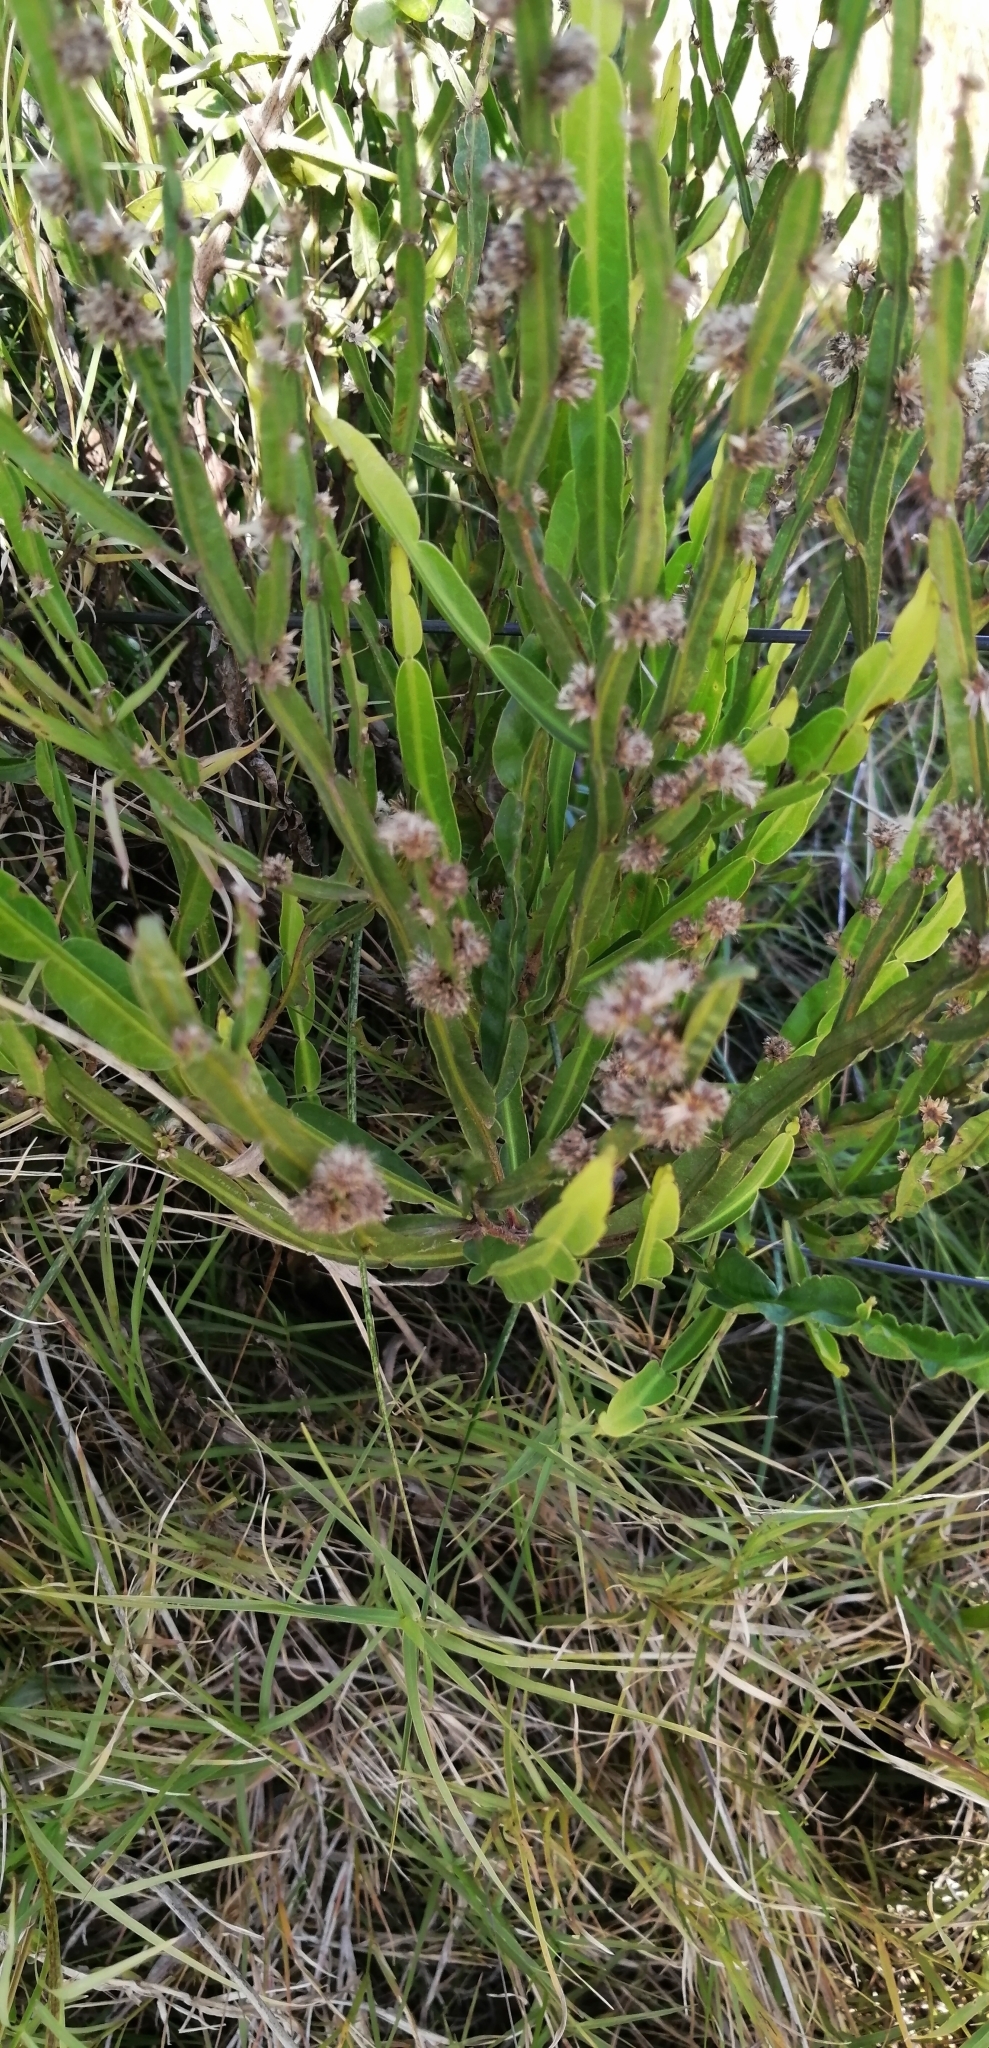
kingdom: Plantae
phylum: Tracheophyta
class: Magnoliopsida
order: Asterales
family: Asteraceae
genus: Baccharis
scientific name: Baccharis trimera
